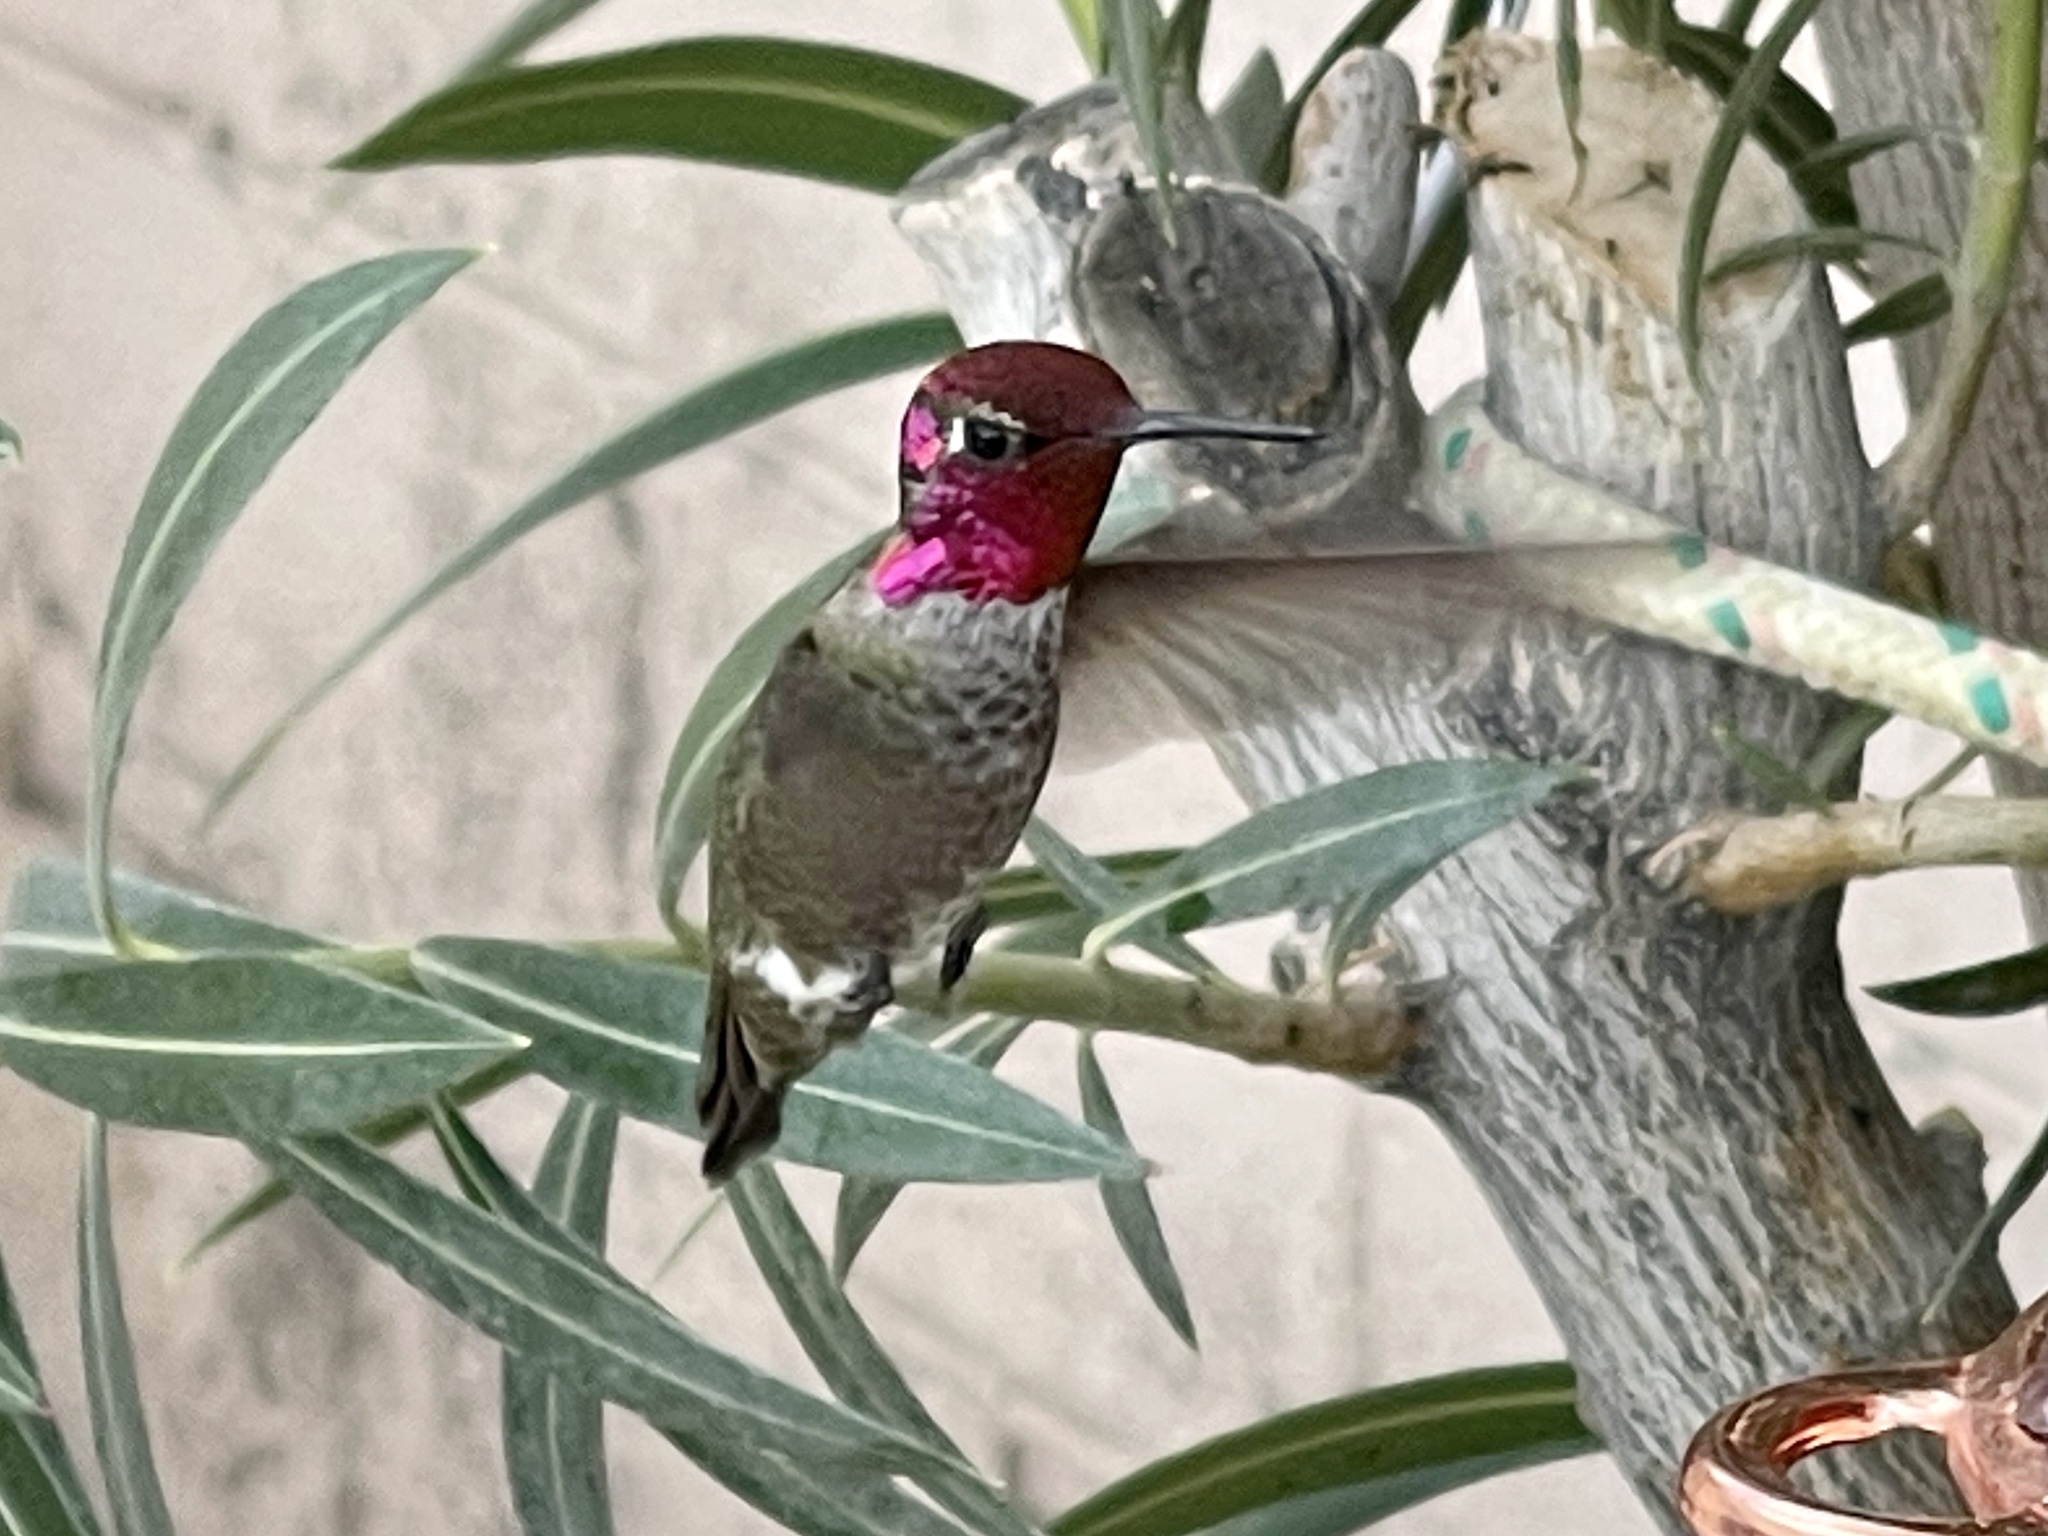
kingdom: Animalia
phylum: Chordata
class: Aves
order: Apodiformes
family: Trochilidae
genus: Calypte
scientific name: Calypte anna
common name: Anna's hummingbird
